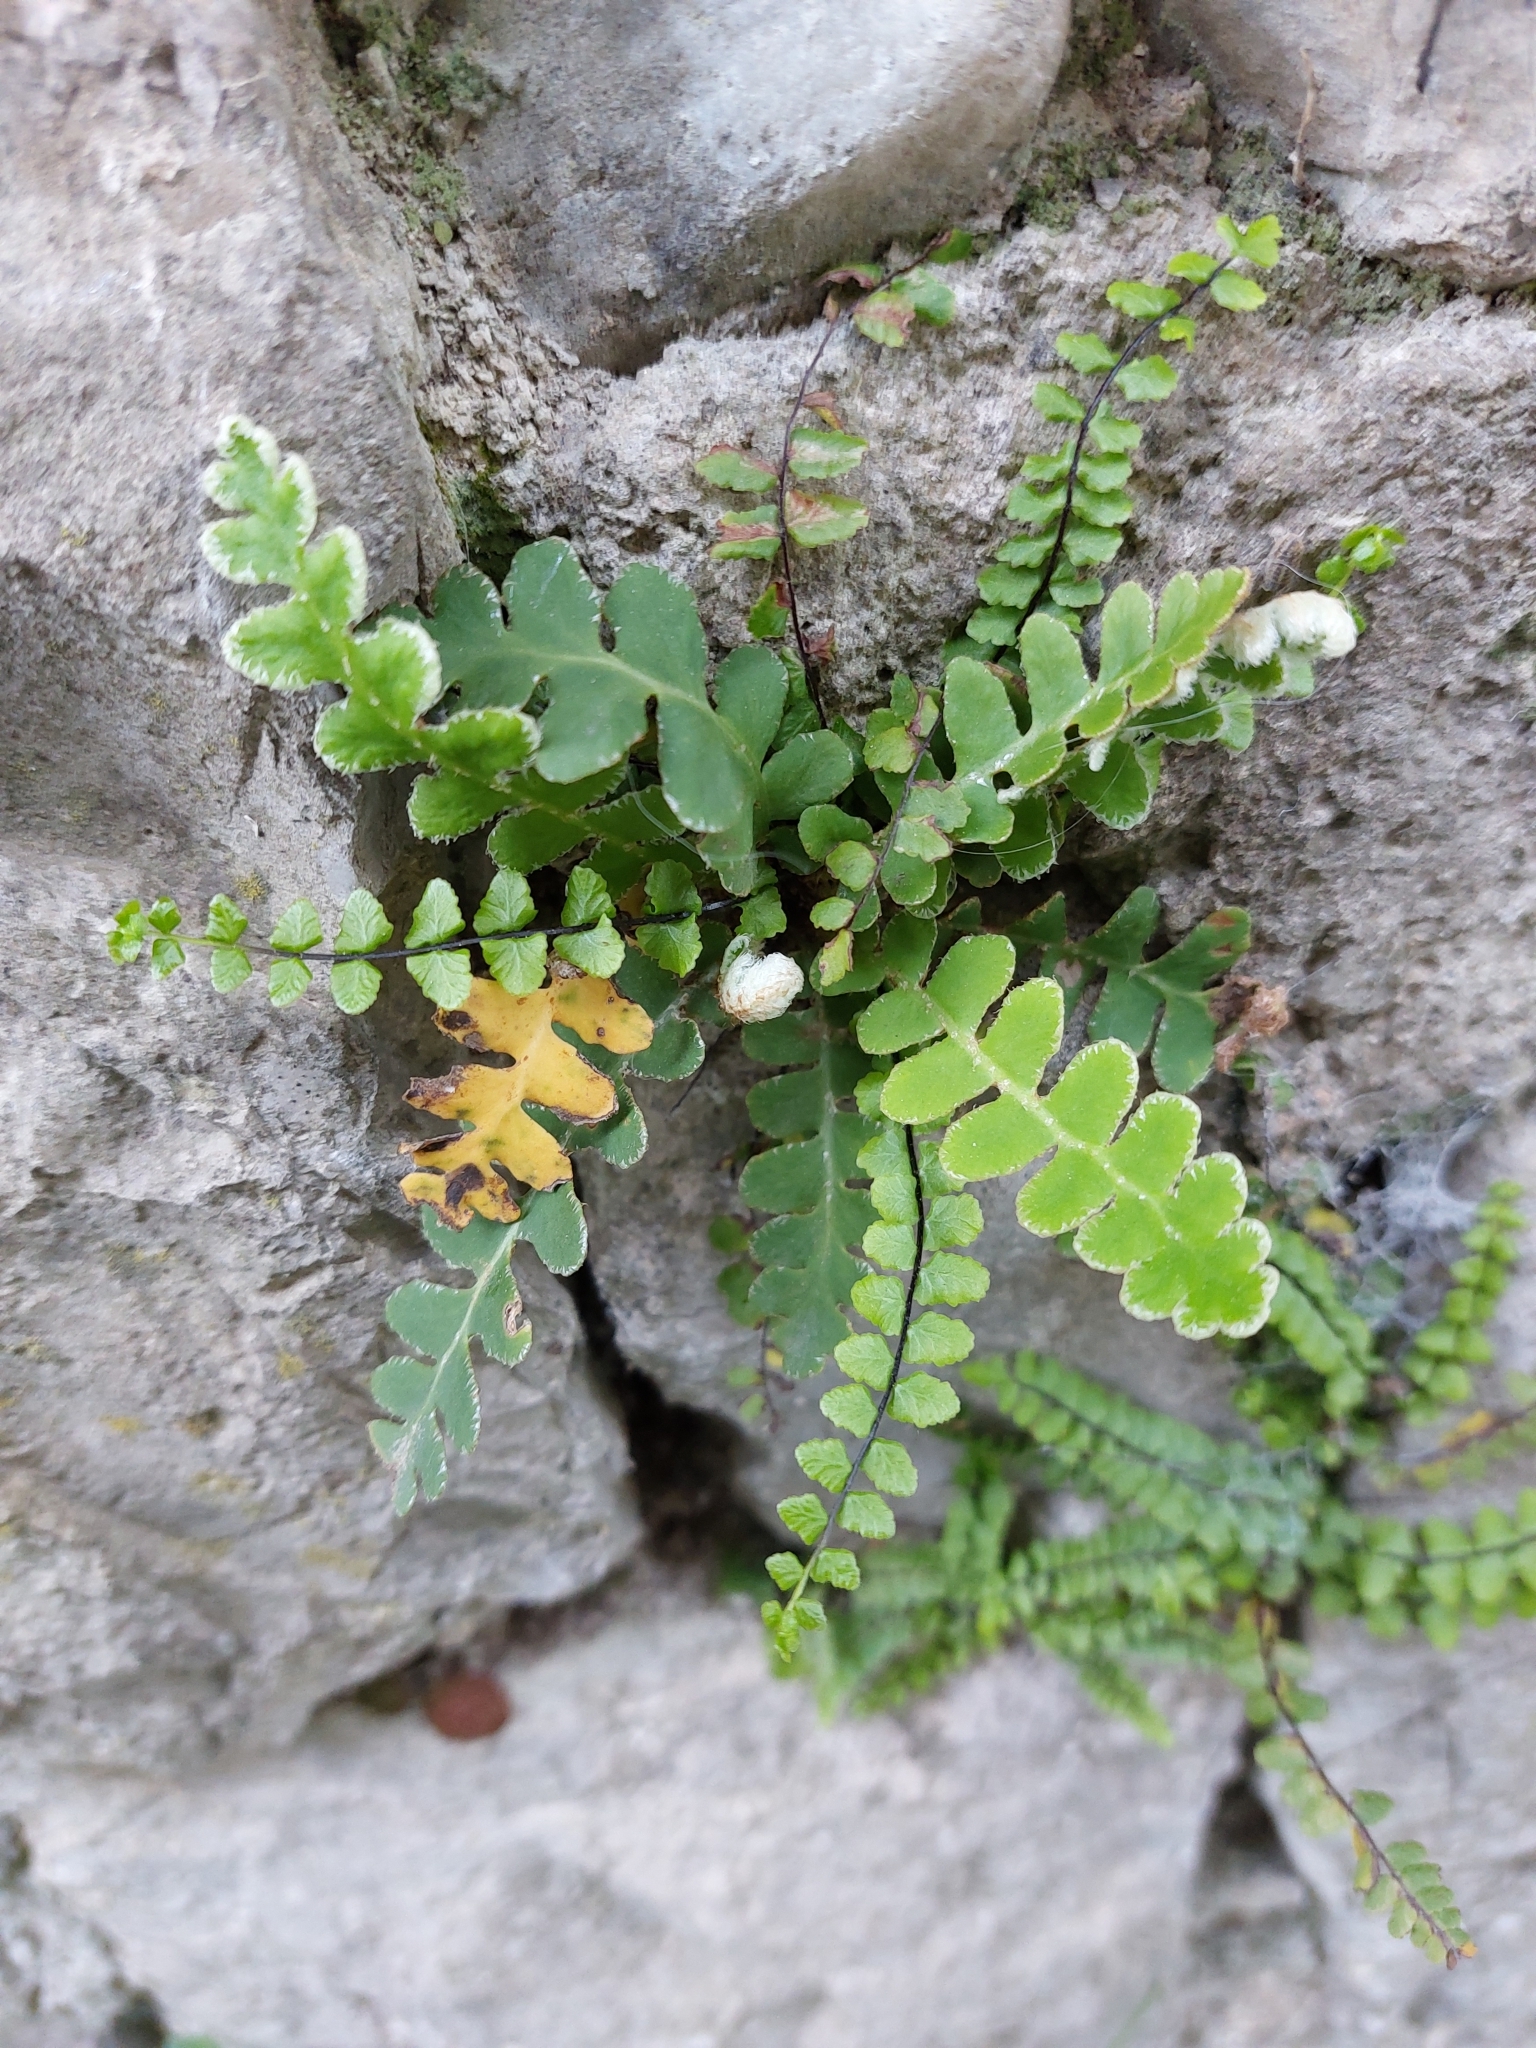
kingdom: Plantae
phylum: Tracheophyta
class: Polypodiopsida
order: Polypodiales
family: Aspleniaceae
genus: Asplenium
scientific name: Asplenium ceterach
